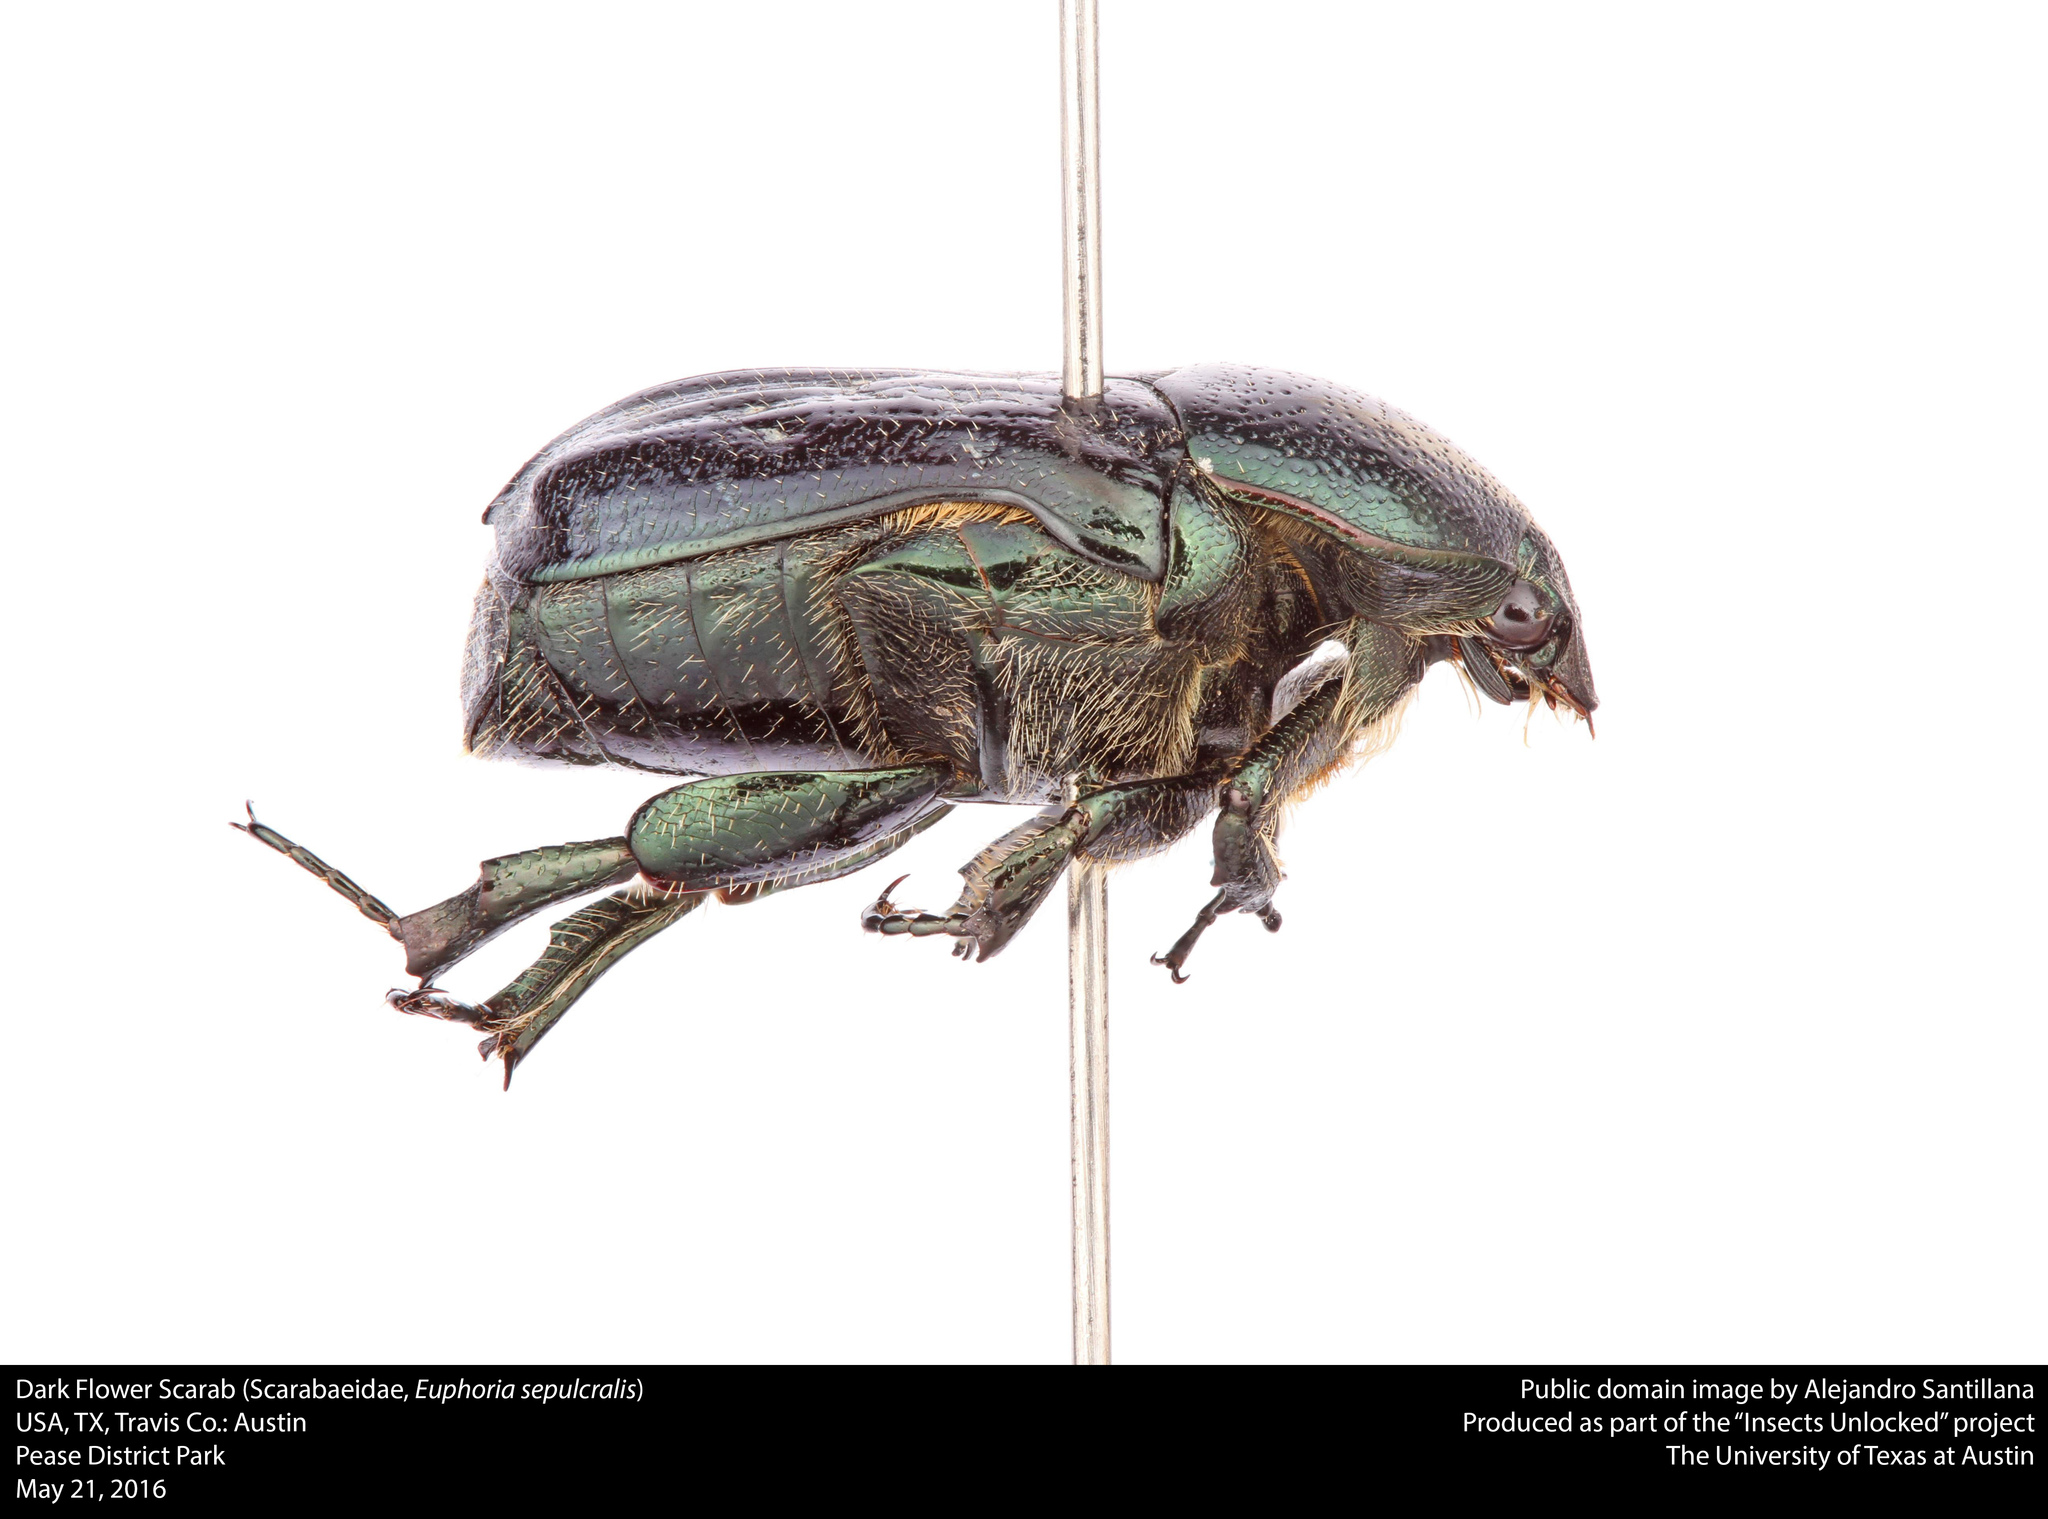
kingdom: Animalia
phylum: Arthropoda
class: Insecta
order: Coleoptera
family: Scarabaeidae
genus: Euphoria
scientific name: Euphoria sepulcralis
